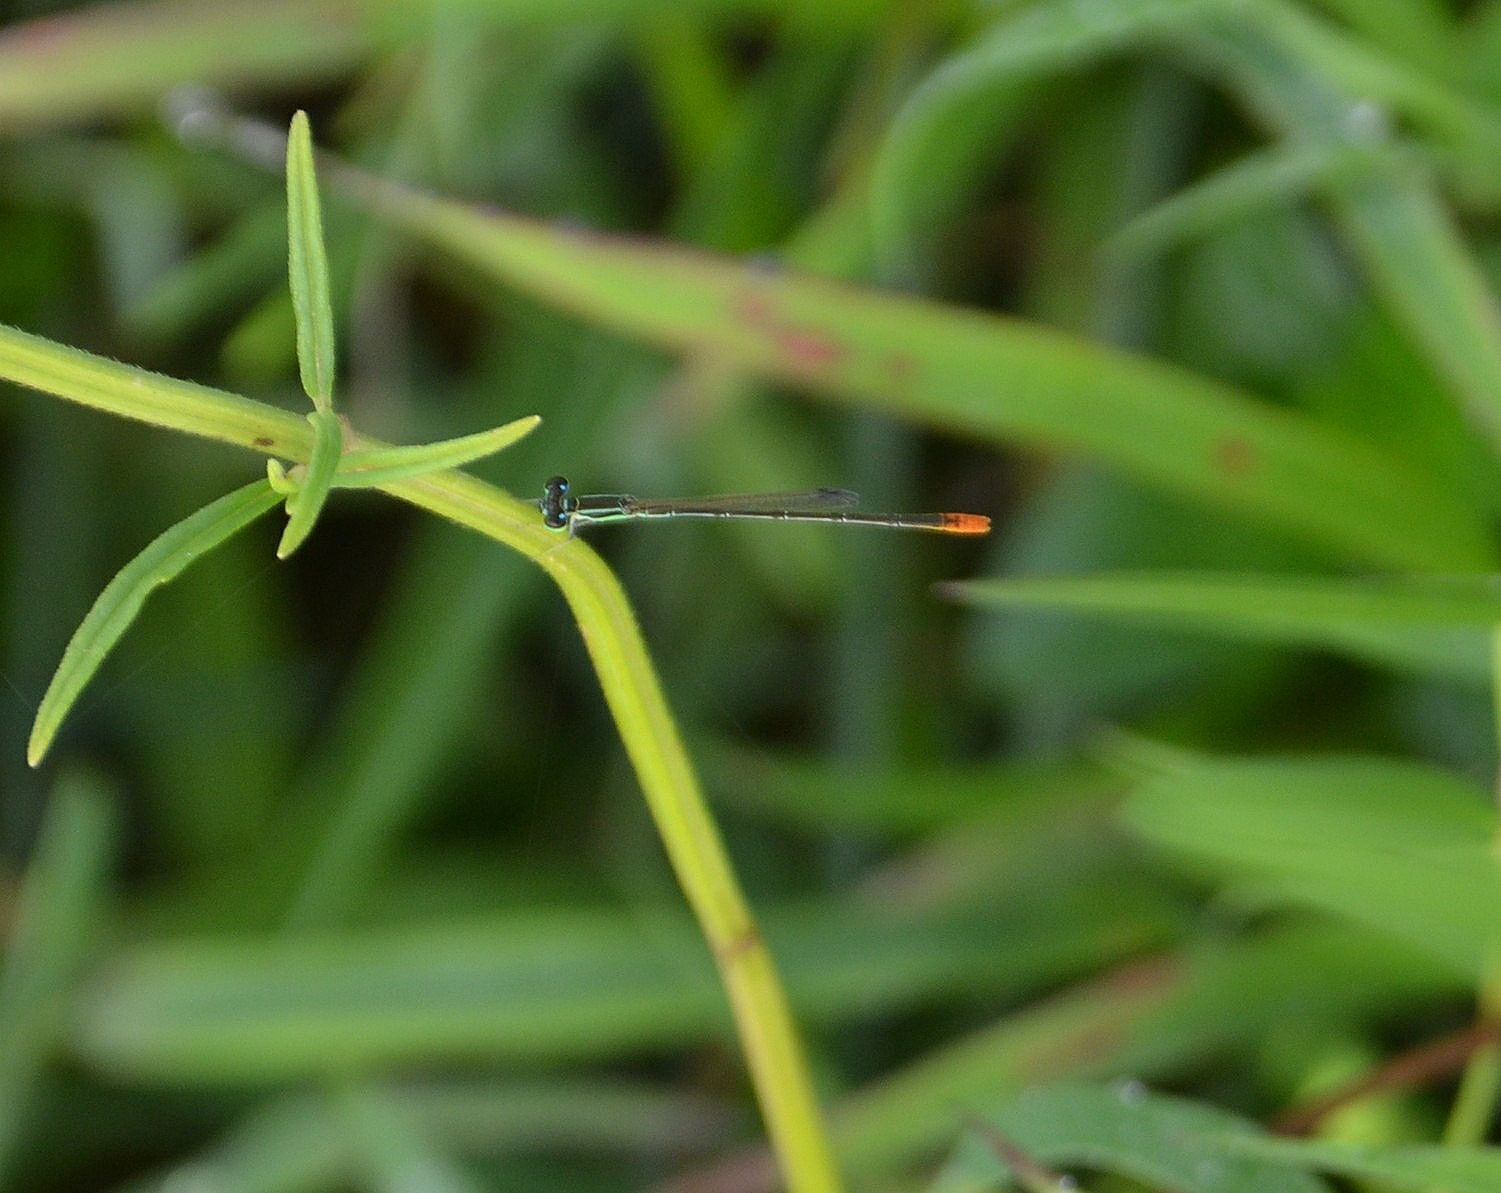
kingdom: Animalia
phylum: Arthropoda
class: Insecta
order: Odonata
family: Coenagrionidae
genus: Agriocnemis
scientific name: Agriocnemis pygmaea
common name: Pygmy wisp
